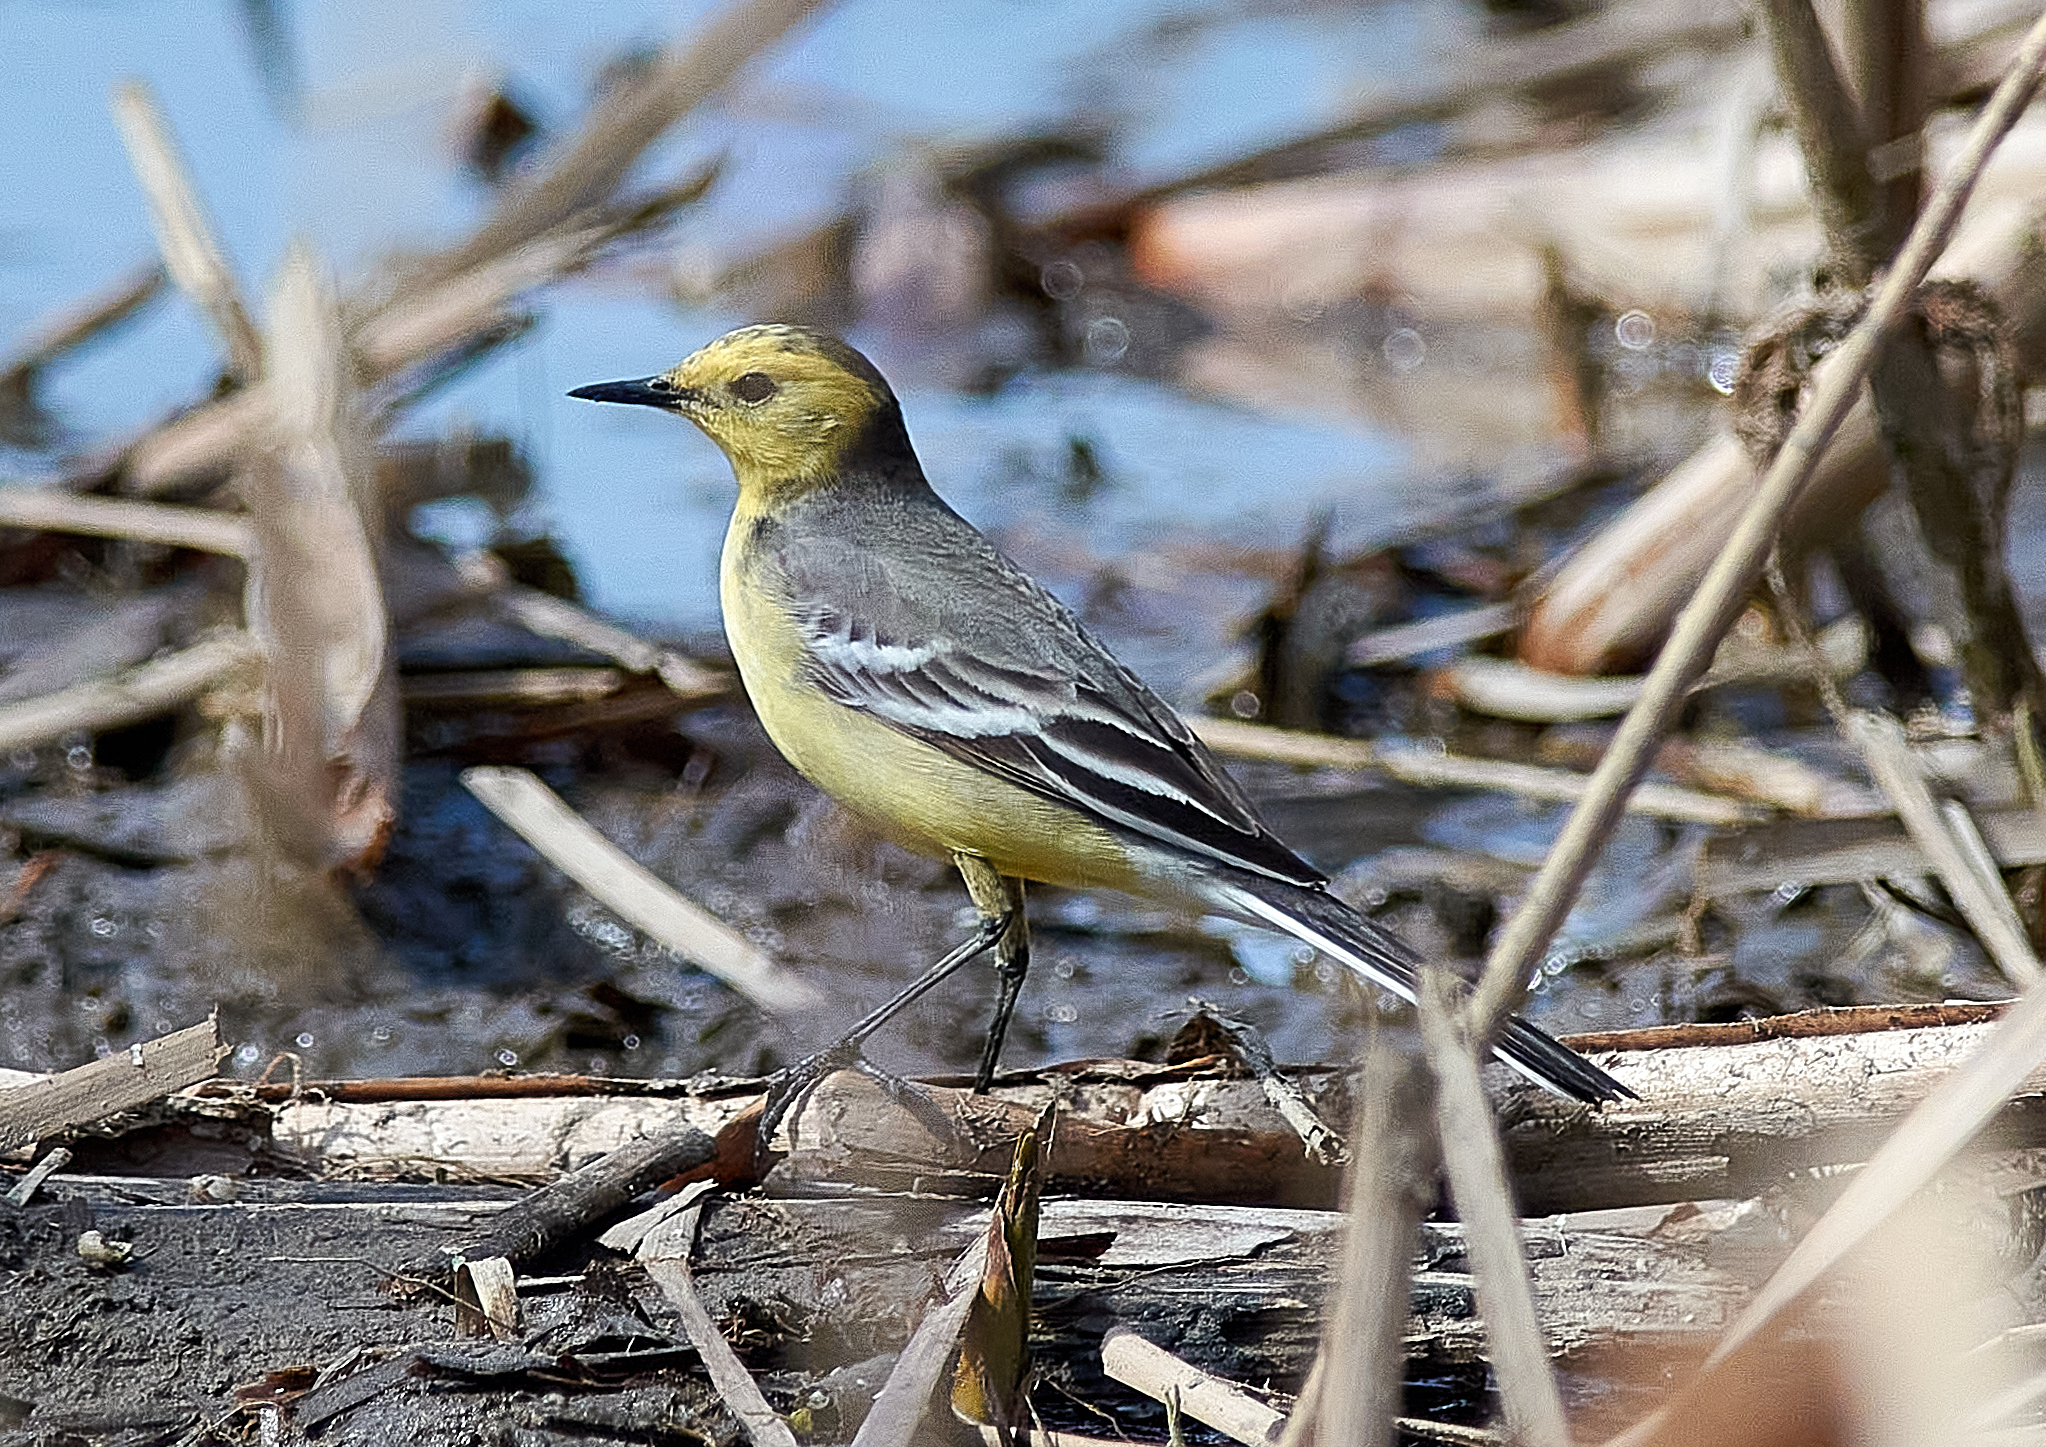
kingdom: Animalia
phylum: Chordata
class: Aves
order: Passeriformes
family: Motacillidae
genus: Motacilla
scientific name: Motacilla citreola
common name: Citrine wagtail
